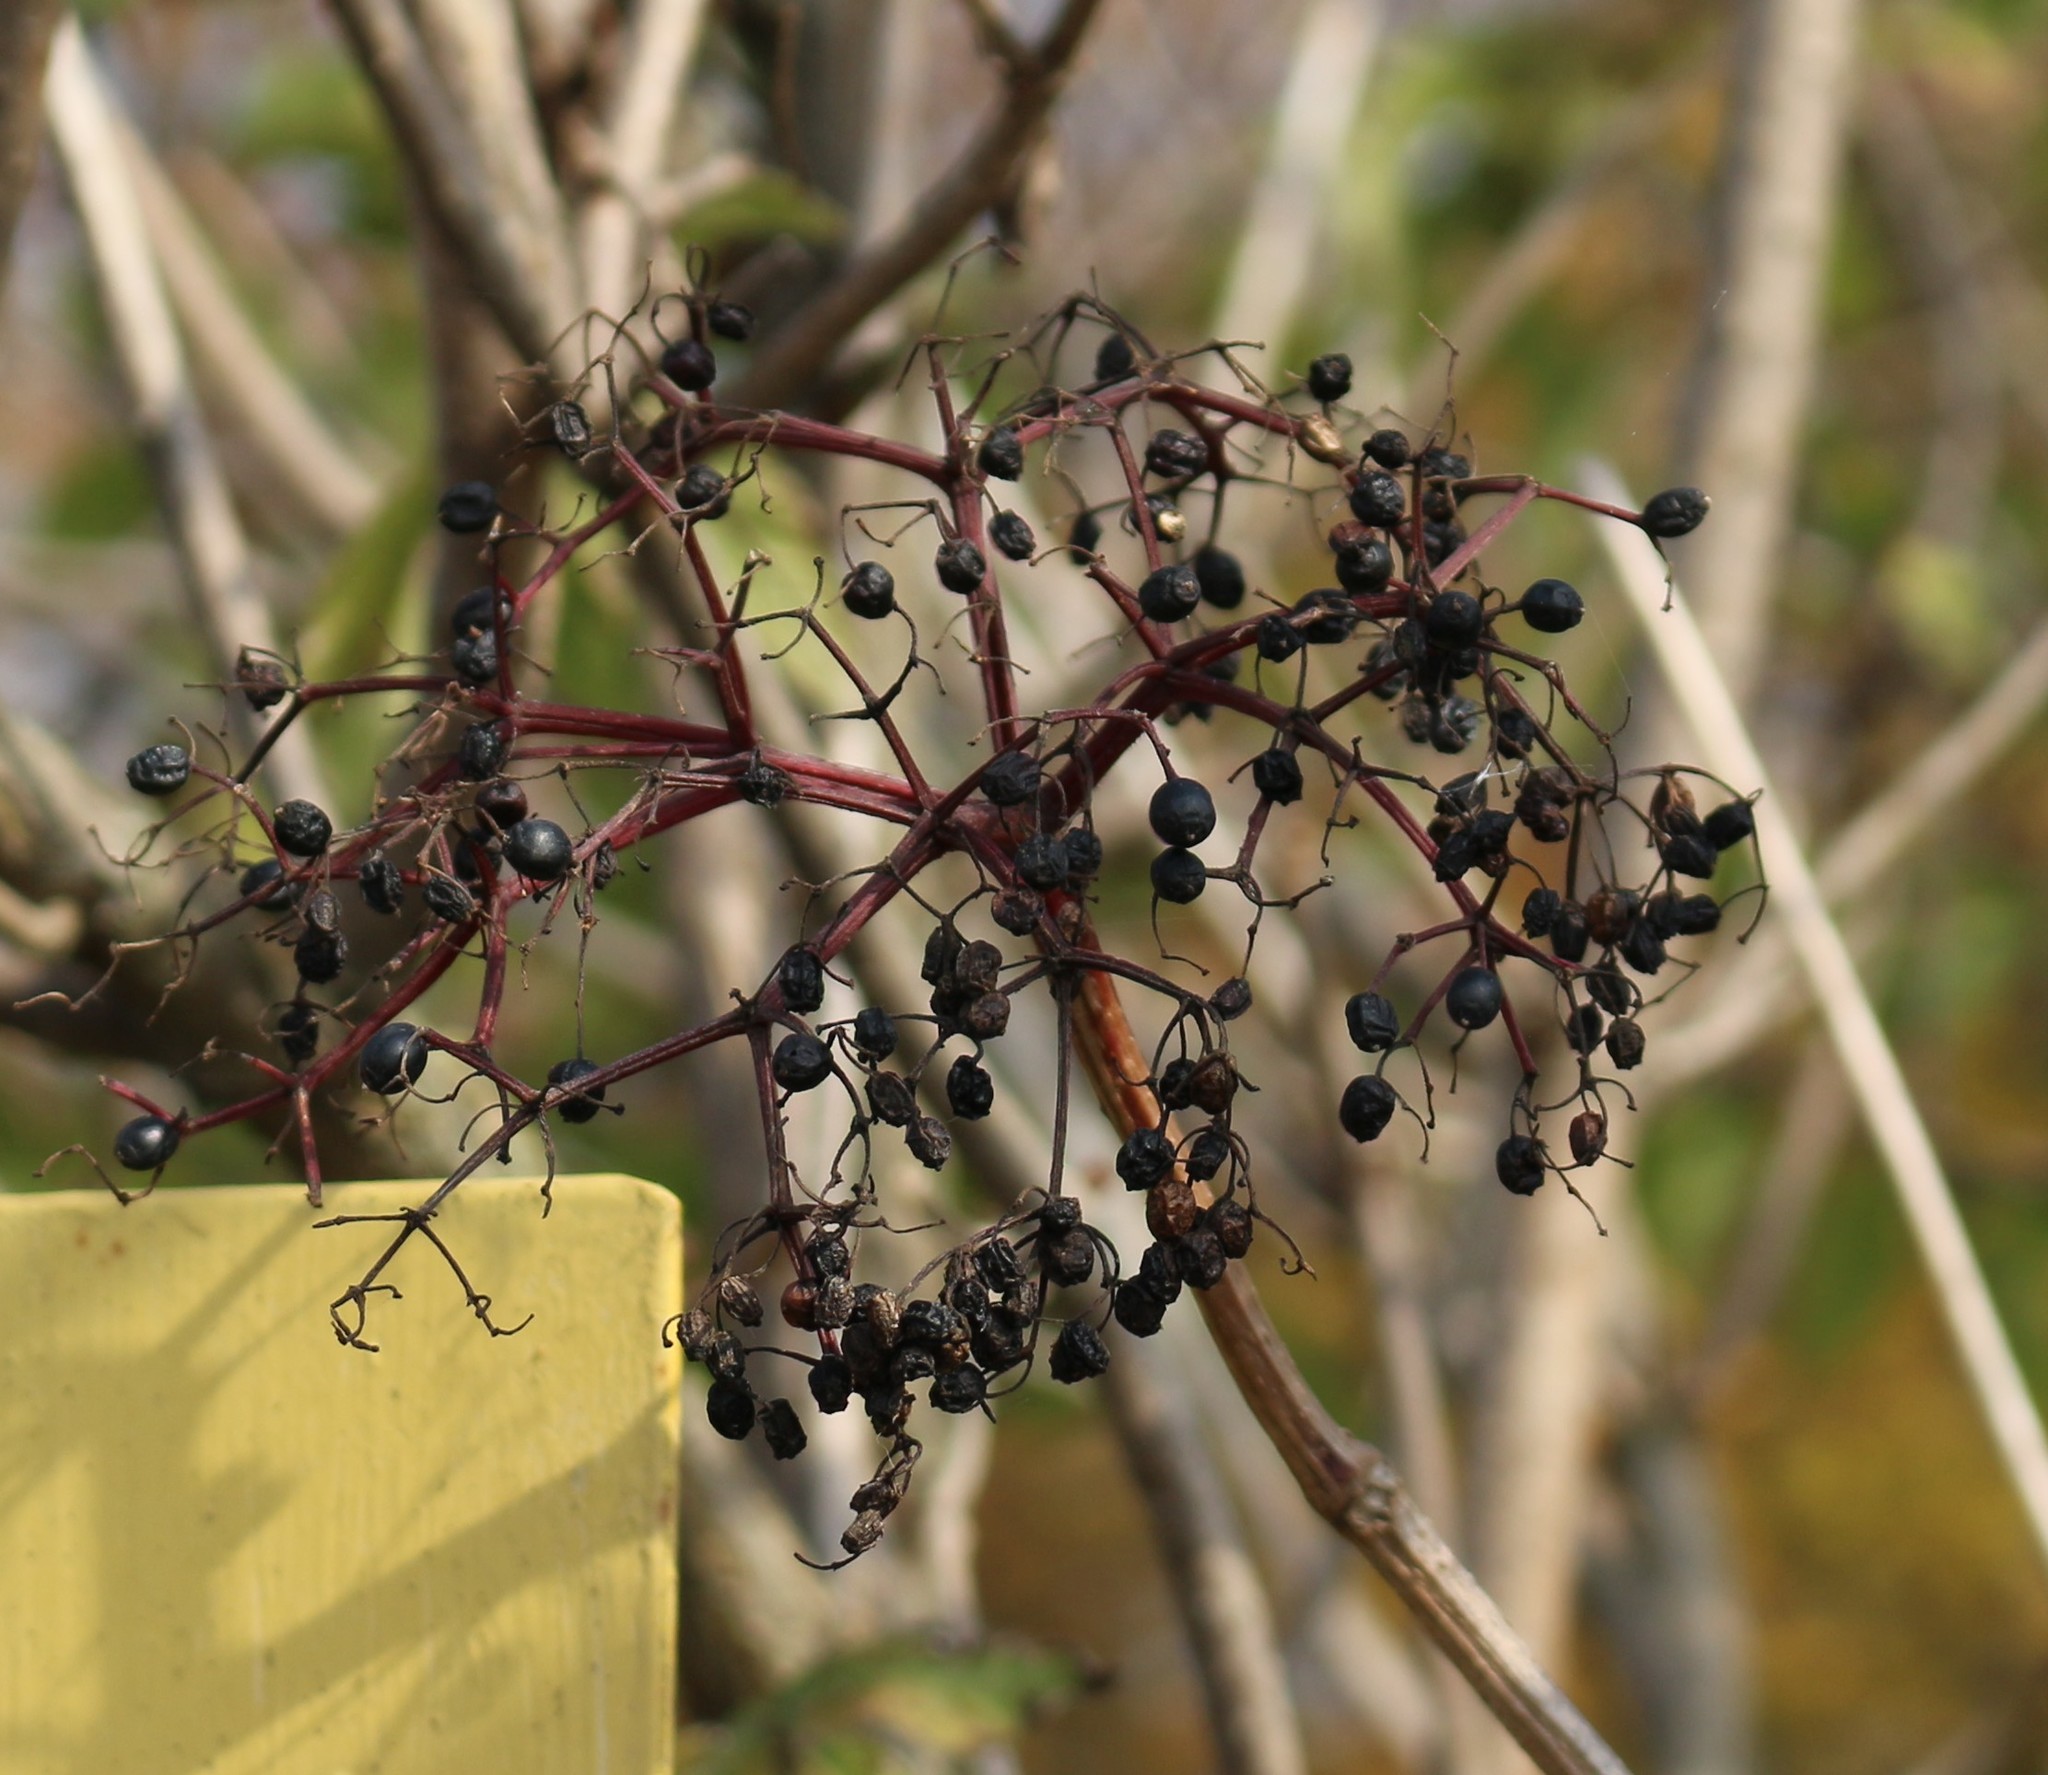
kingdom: Plantae
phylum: Tracheophyta
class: Magnoliopsida
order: Dipsacales
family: Viburnaceae
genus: Sambucus
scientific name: Sambucus nigra
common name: Elder
